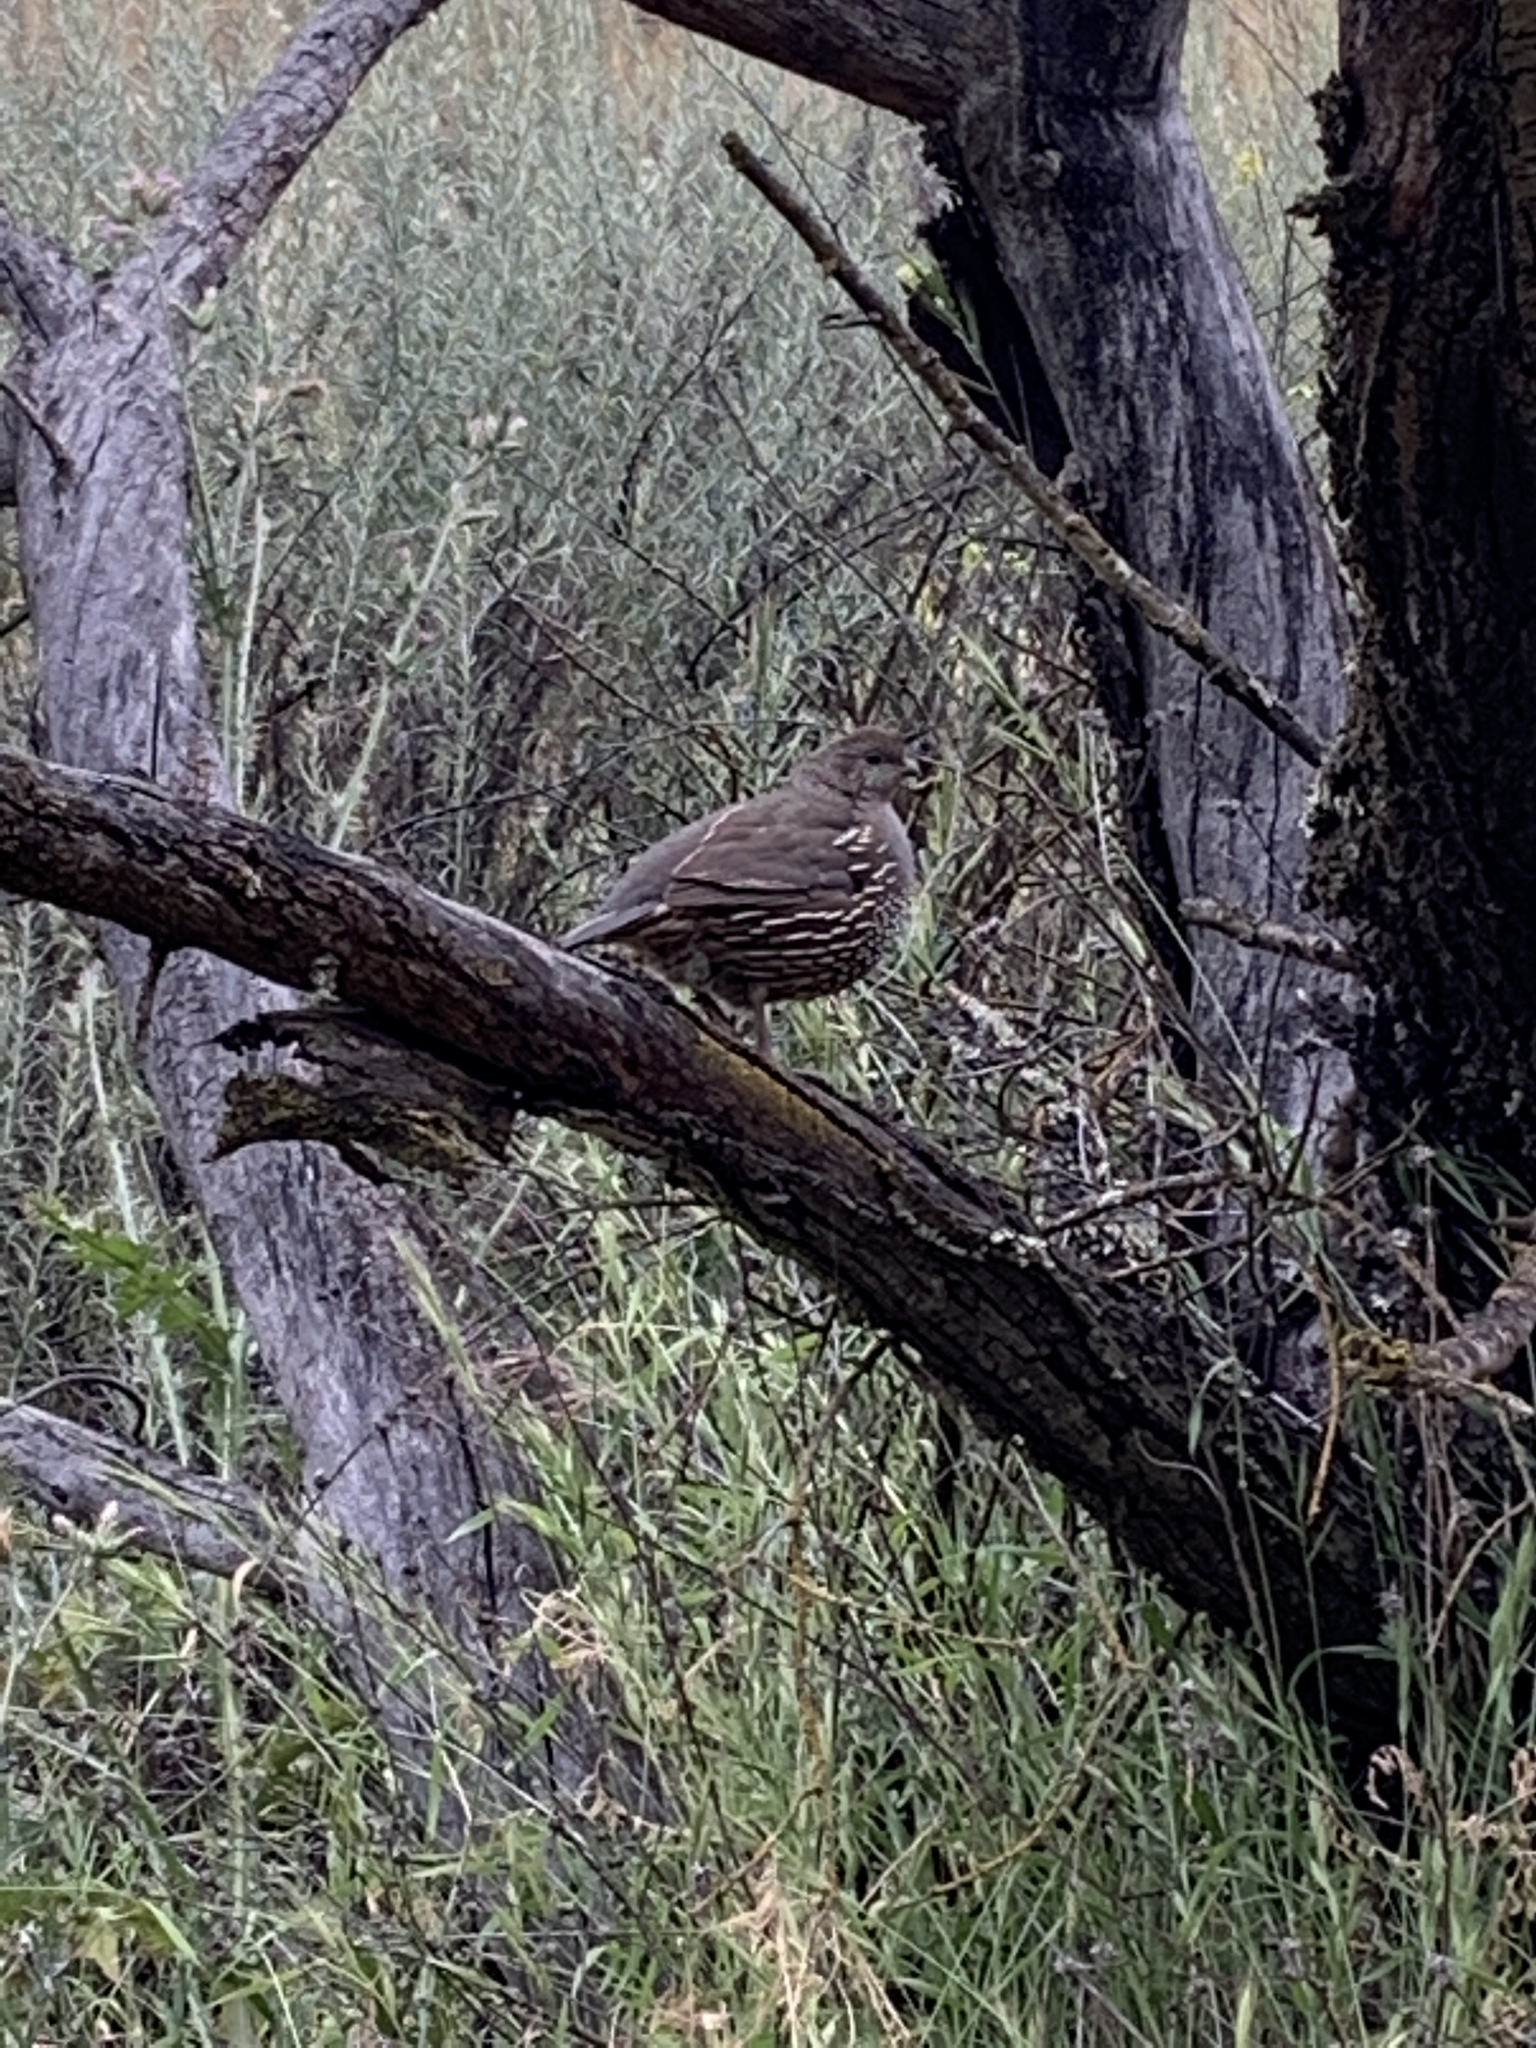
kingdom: Animalia
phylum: Chordata
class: Aves
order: Galliformes
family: Odontophoridae
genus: Callipepla
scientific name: Callipepla californica
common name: California quail
